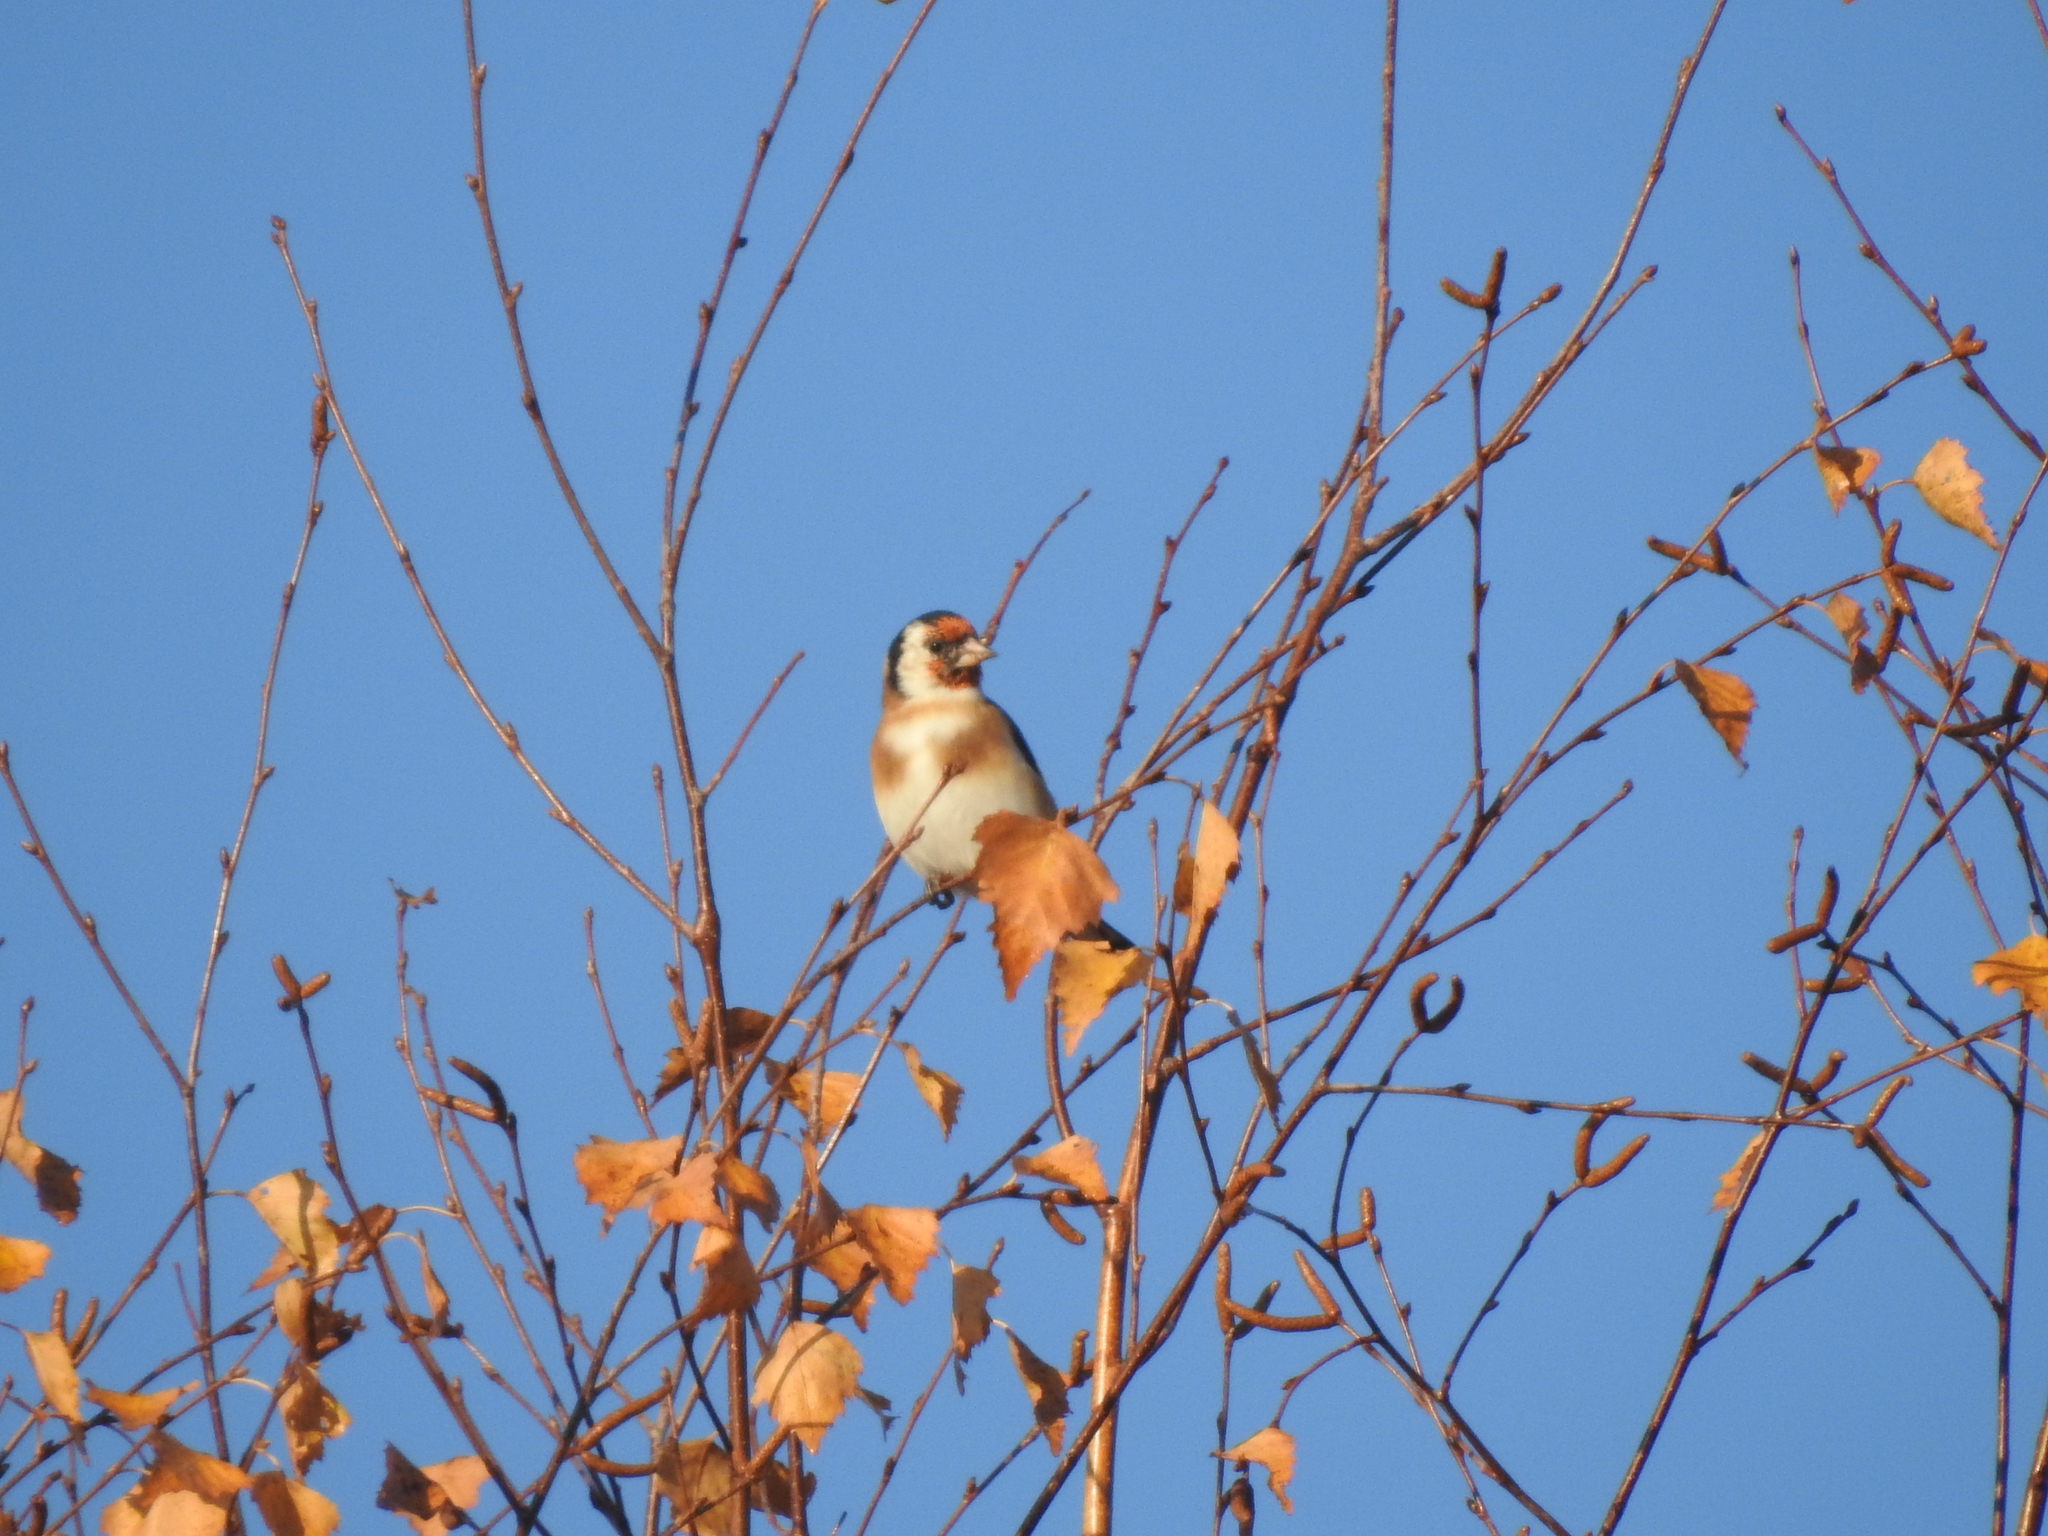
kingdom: Animalia
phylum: Chordata
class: Aves
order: Passeriformes
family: Fringillidae
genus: Carduelis
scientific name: Carduelis carduelis
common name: European goldfinch
